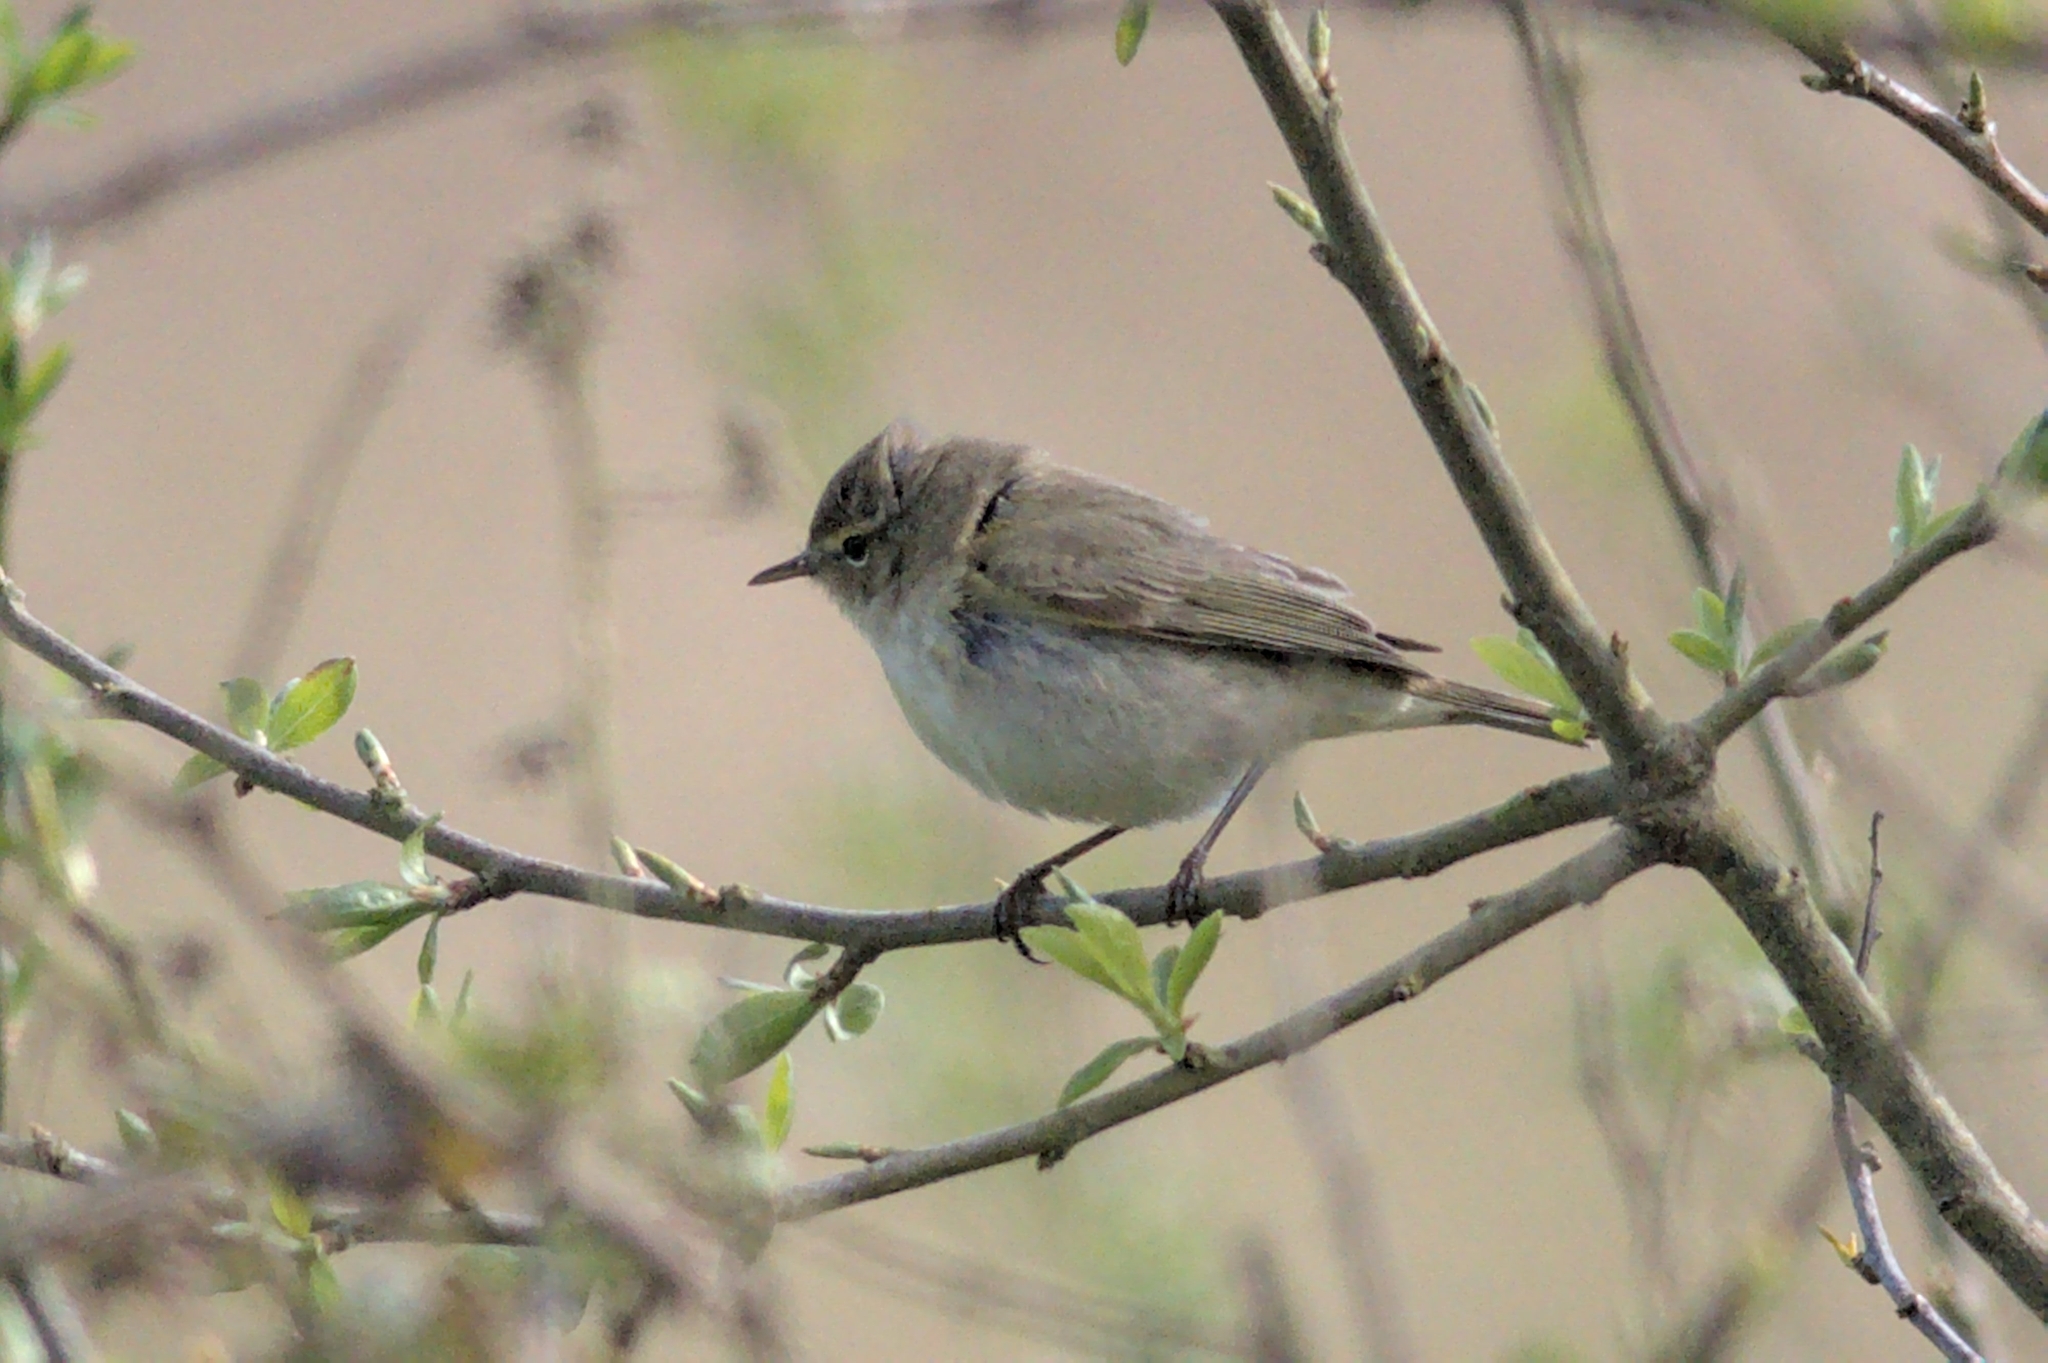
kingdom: Animalia
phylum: Chordata
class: Aves
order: Passeriformes
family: Phylloscopidae
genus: Phylloscopus
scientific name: Phylloscopus collybita
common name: Common chiffchaff
